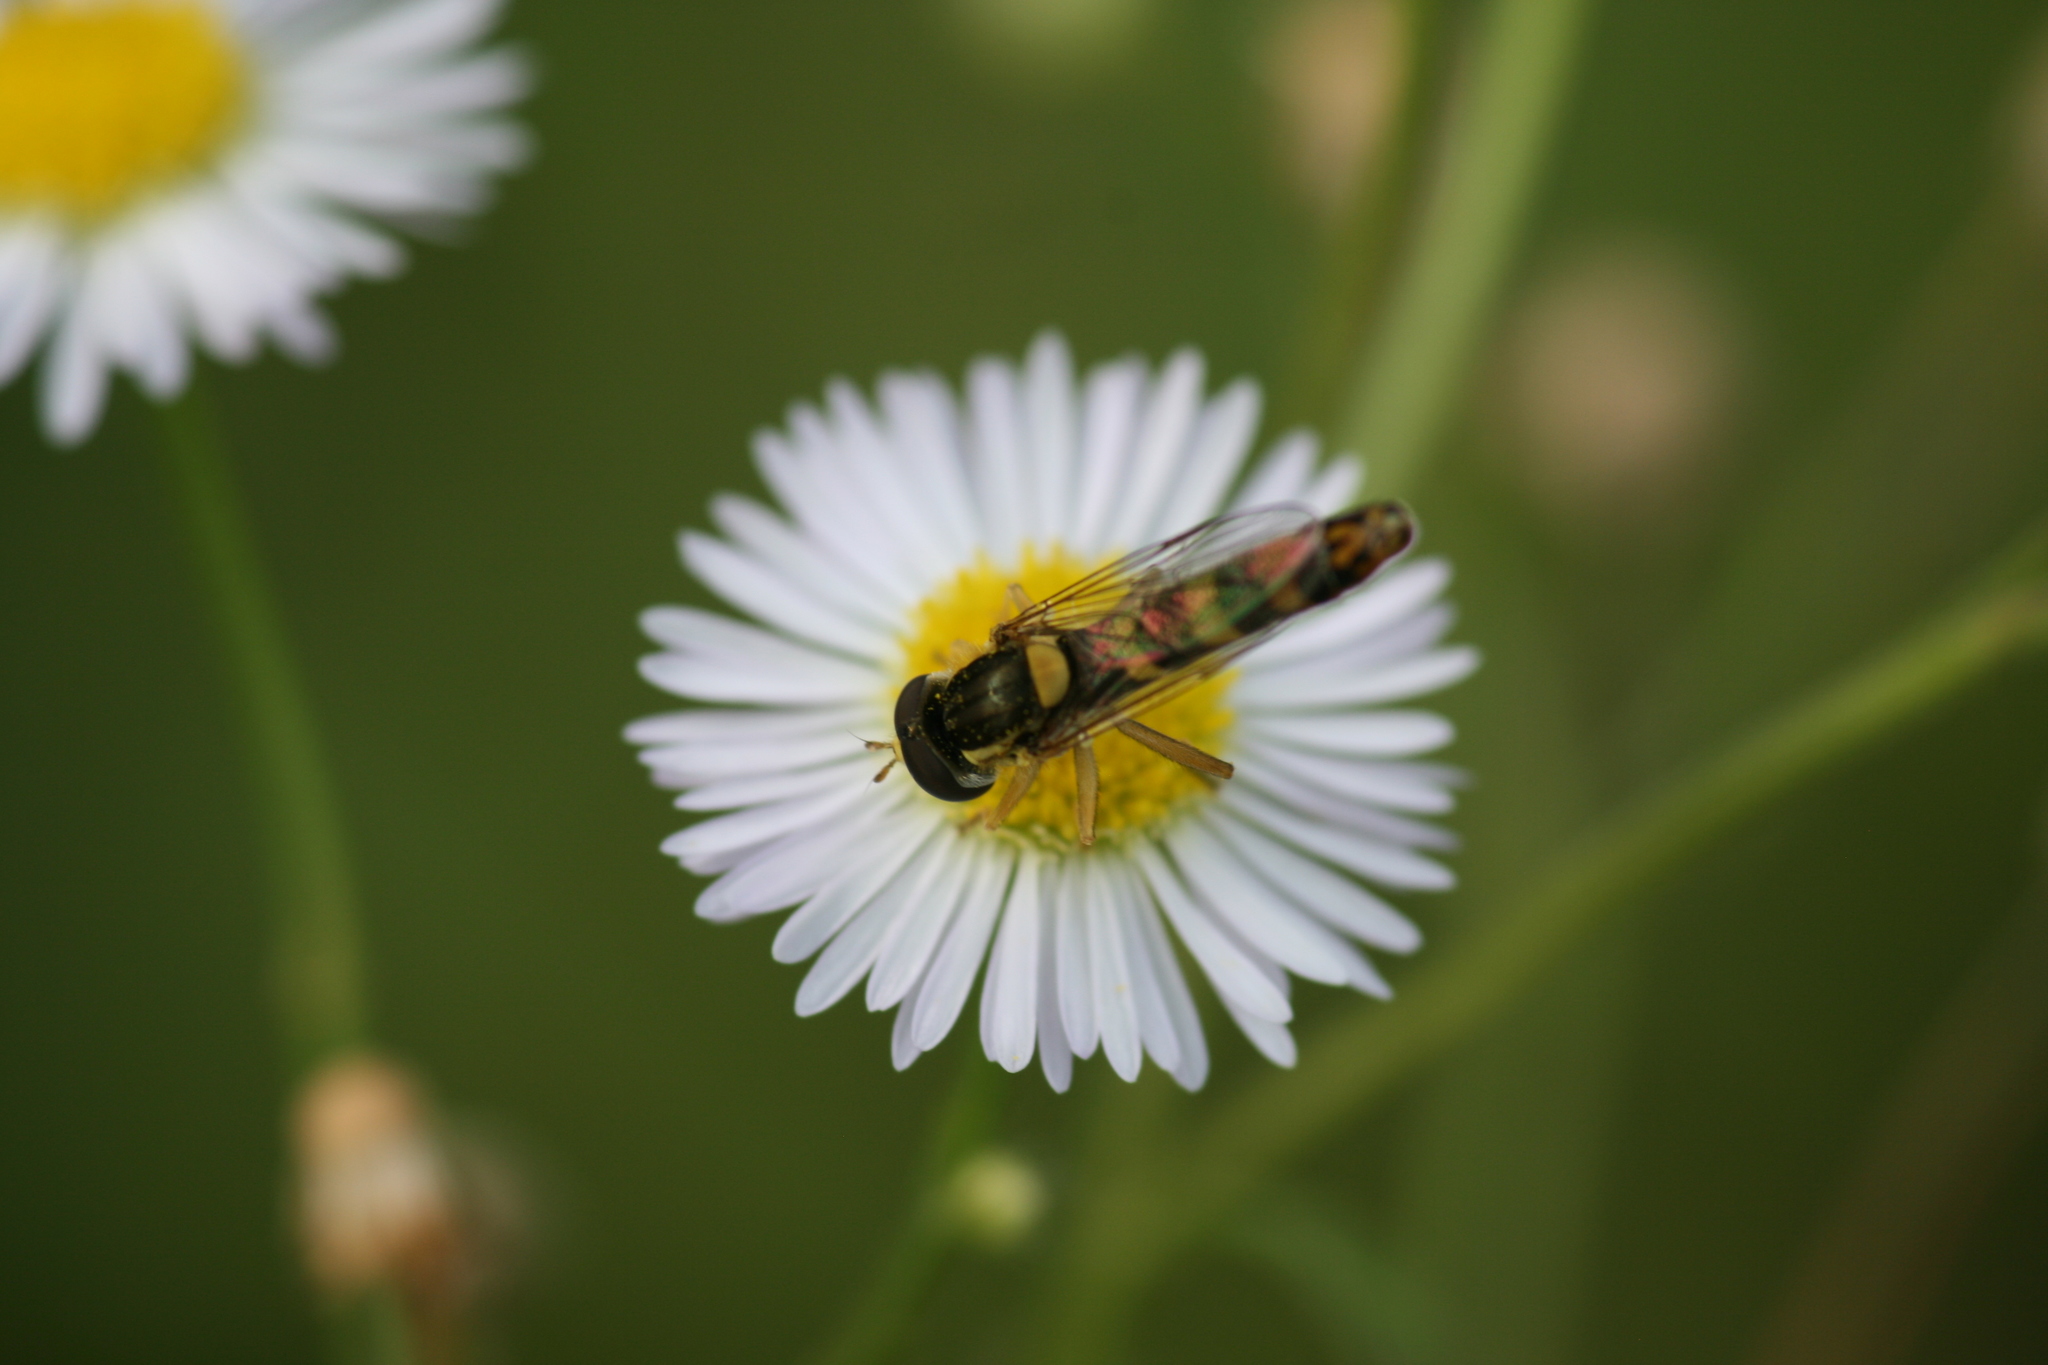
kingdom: Animalia
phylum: Arthropoda
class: Insecta
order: Diptera
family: Syrphidae
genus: Sphaerophoria
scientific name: Sphaerophoria scripta
